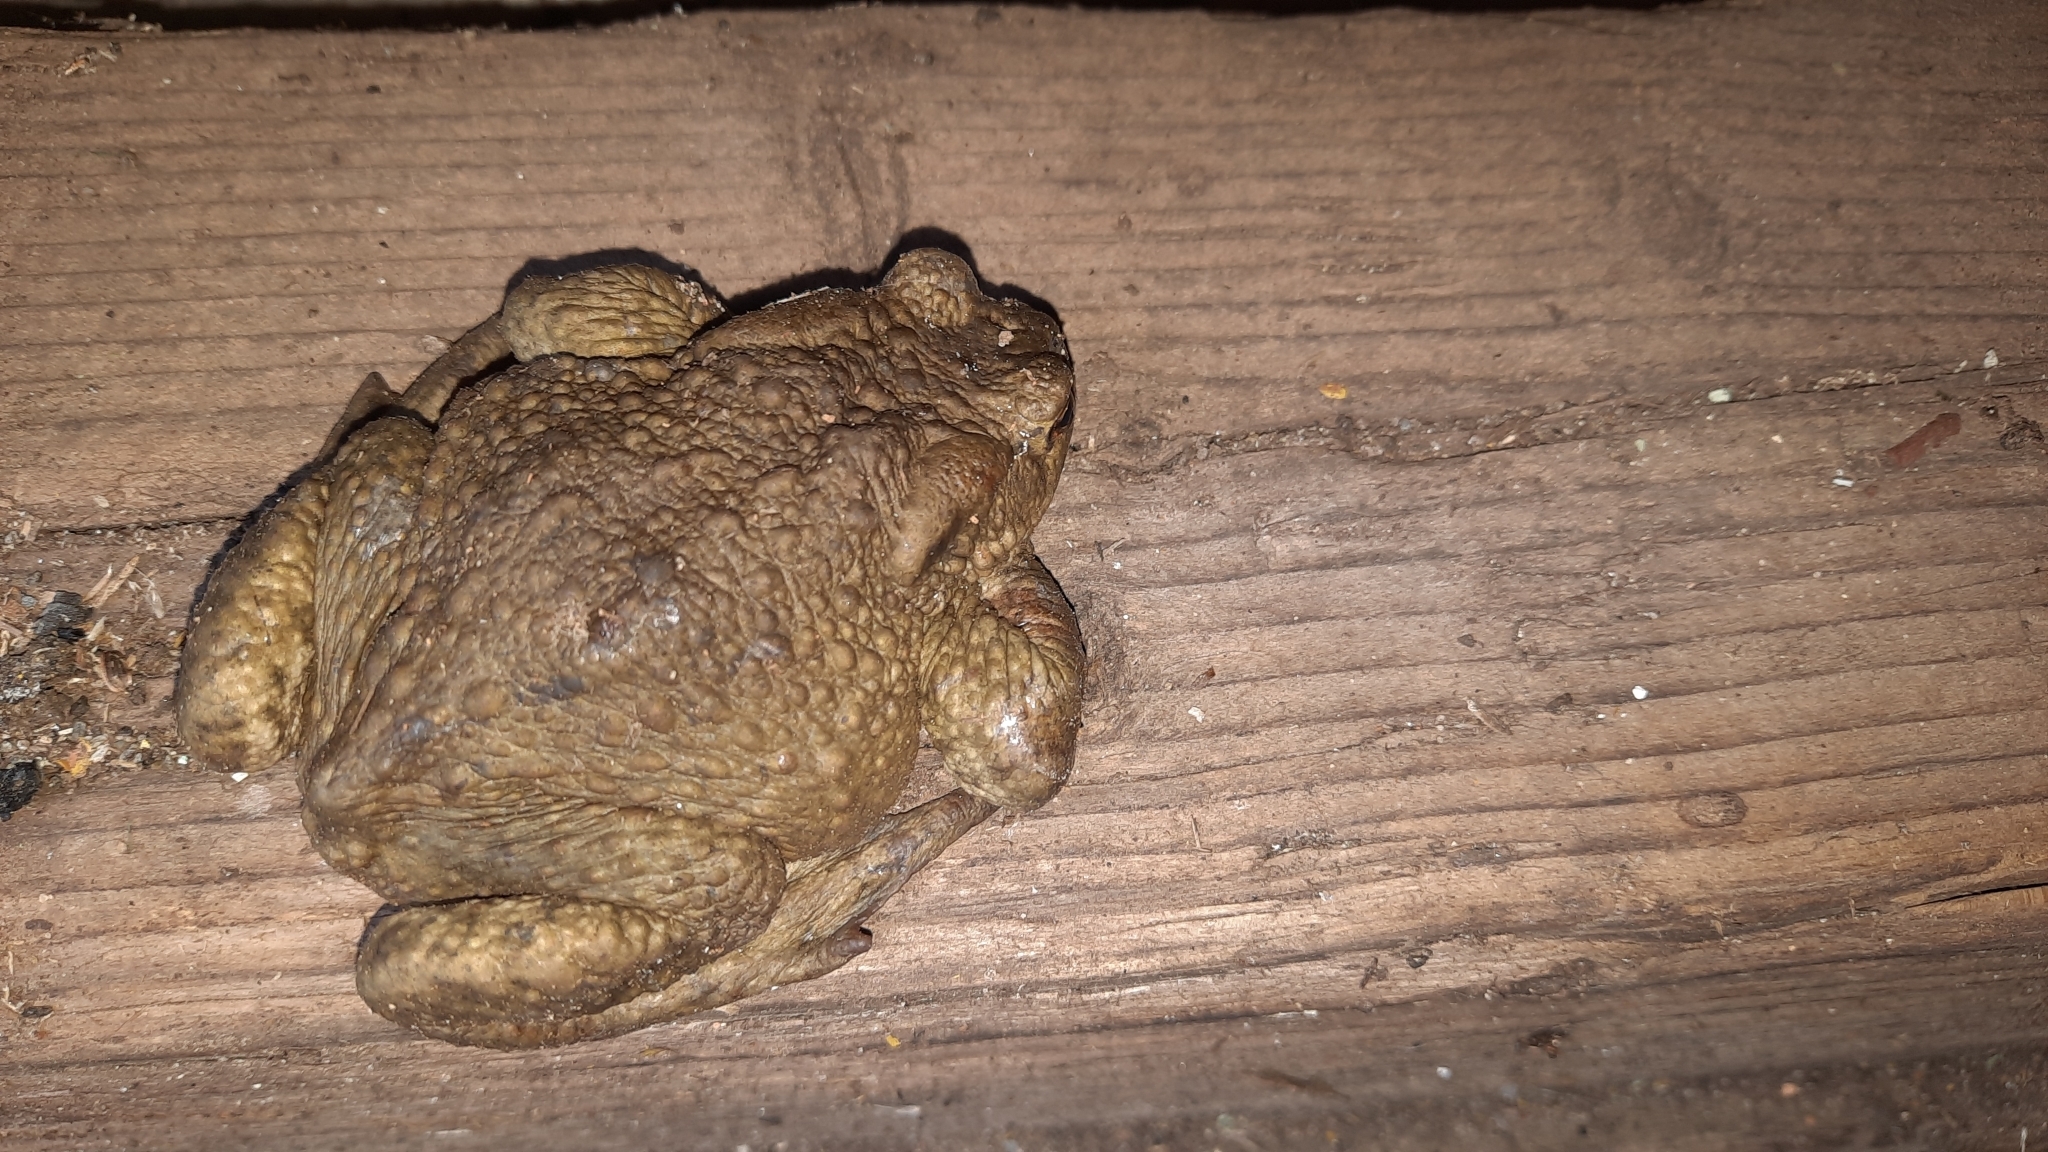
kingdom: Animalia
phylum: Chordata
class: Amphibia
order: Anura
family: Bufonidae
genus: Bufo
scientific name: Bufo bufo
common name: Common toad
